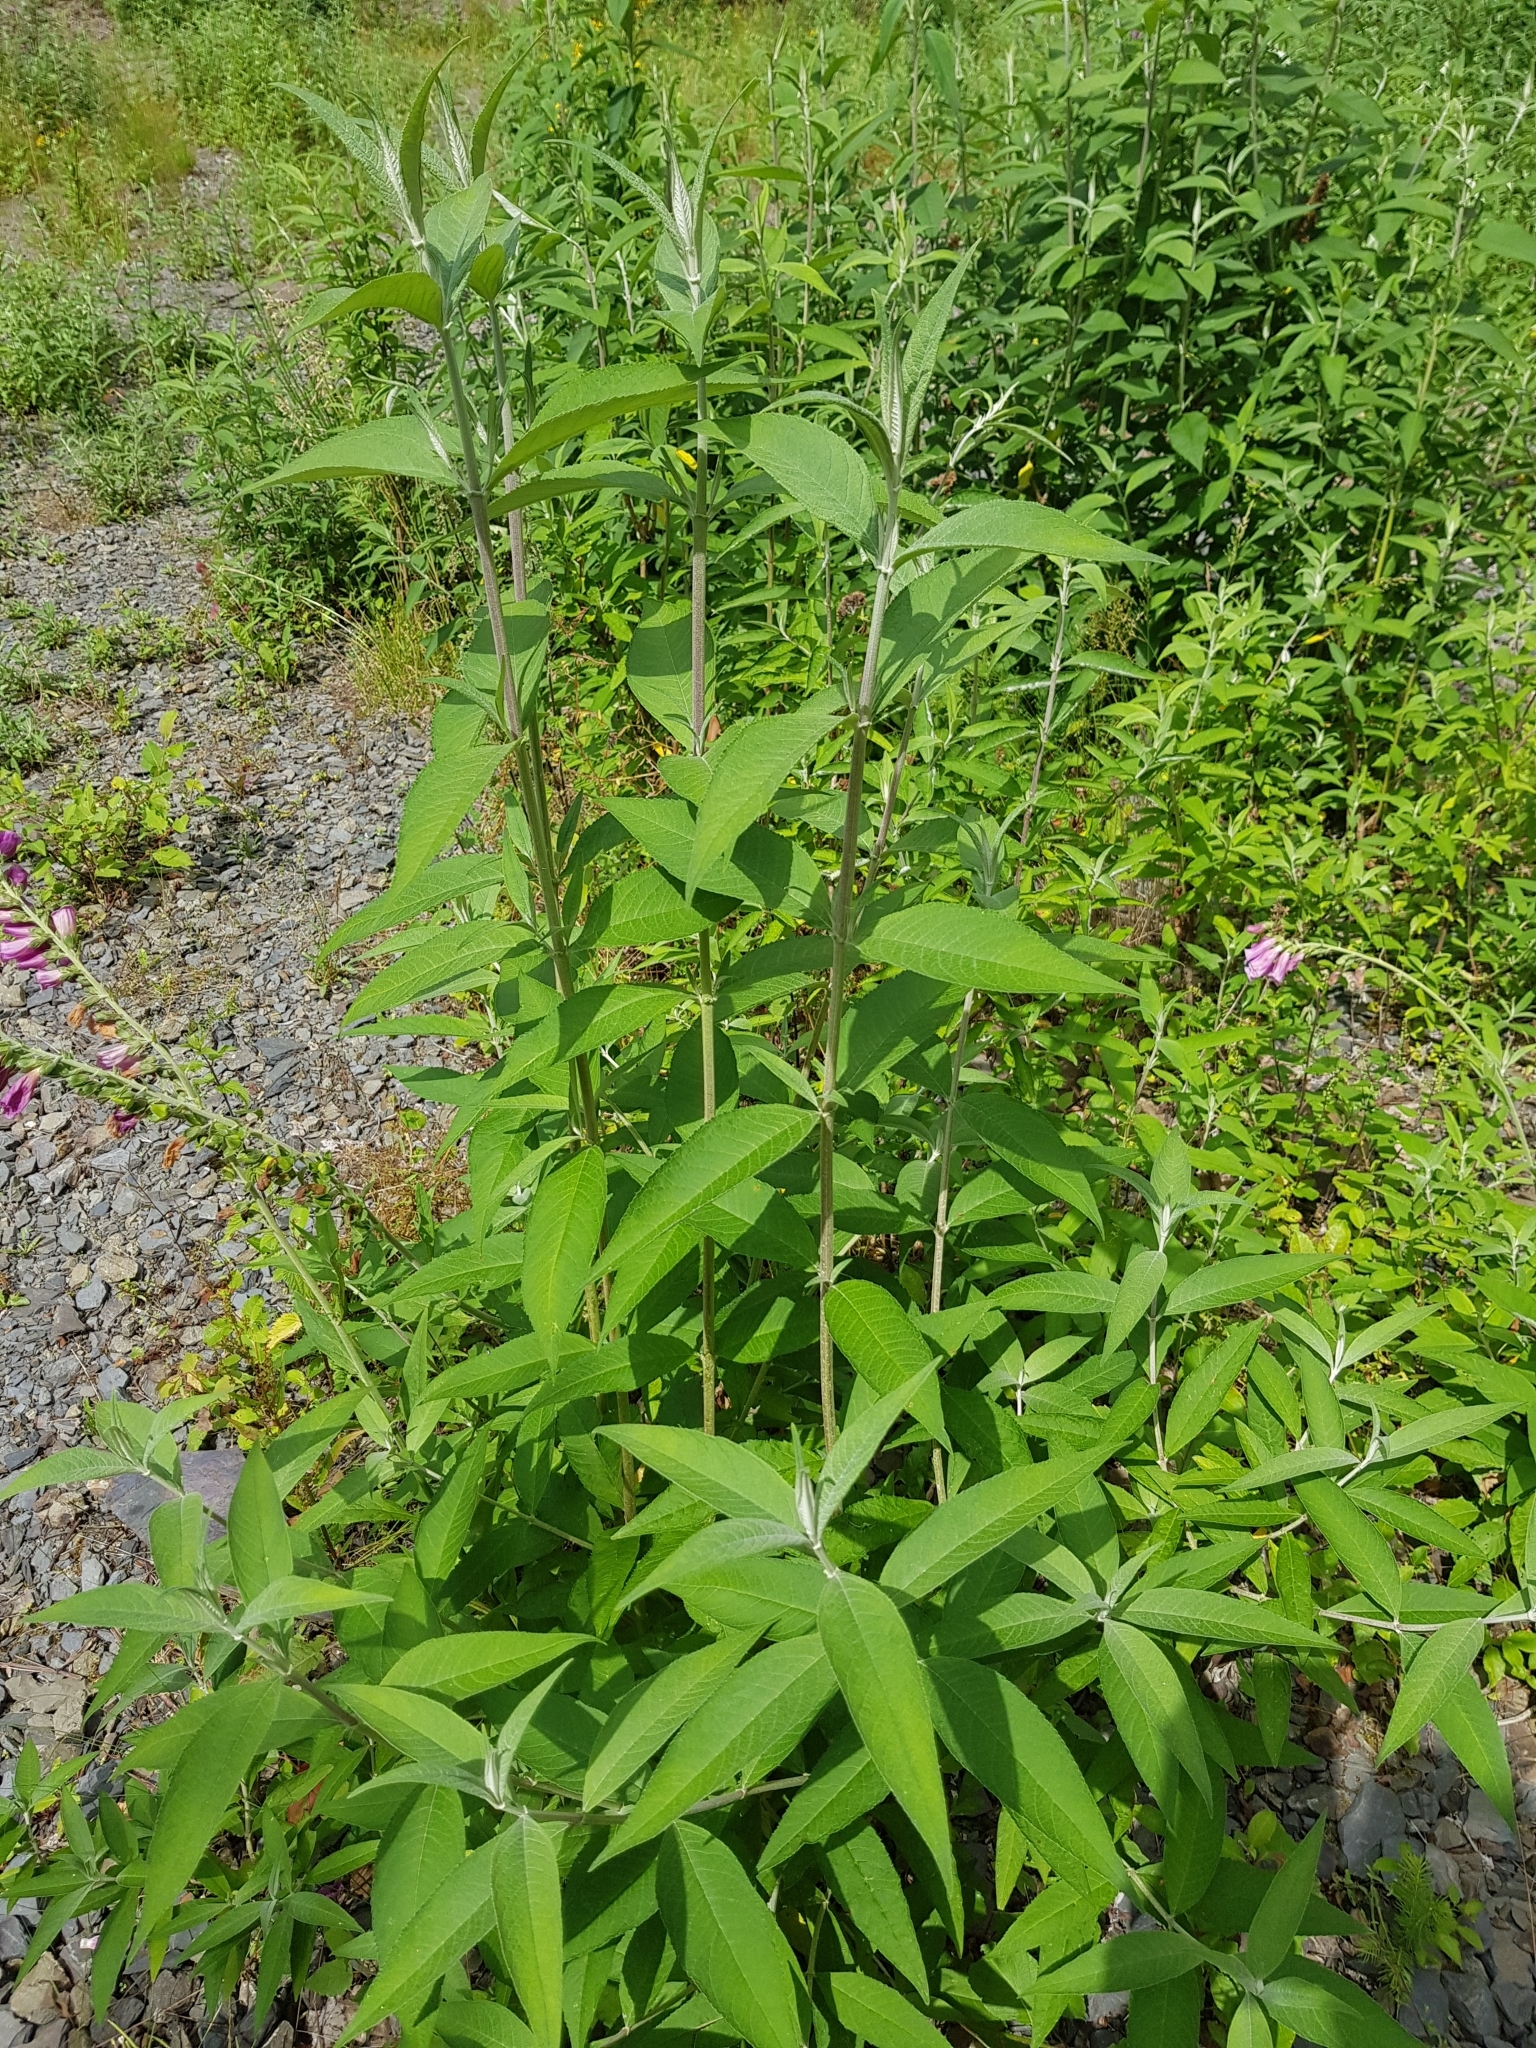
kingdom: Plantae
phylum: Tracheophyta
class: Magnoliopsida
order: Lamiales
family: Scrophulariaceae
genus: Buddleja
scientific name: Buddleja davidii
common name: Butterfly-bush
